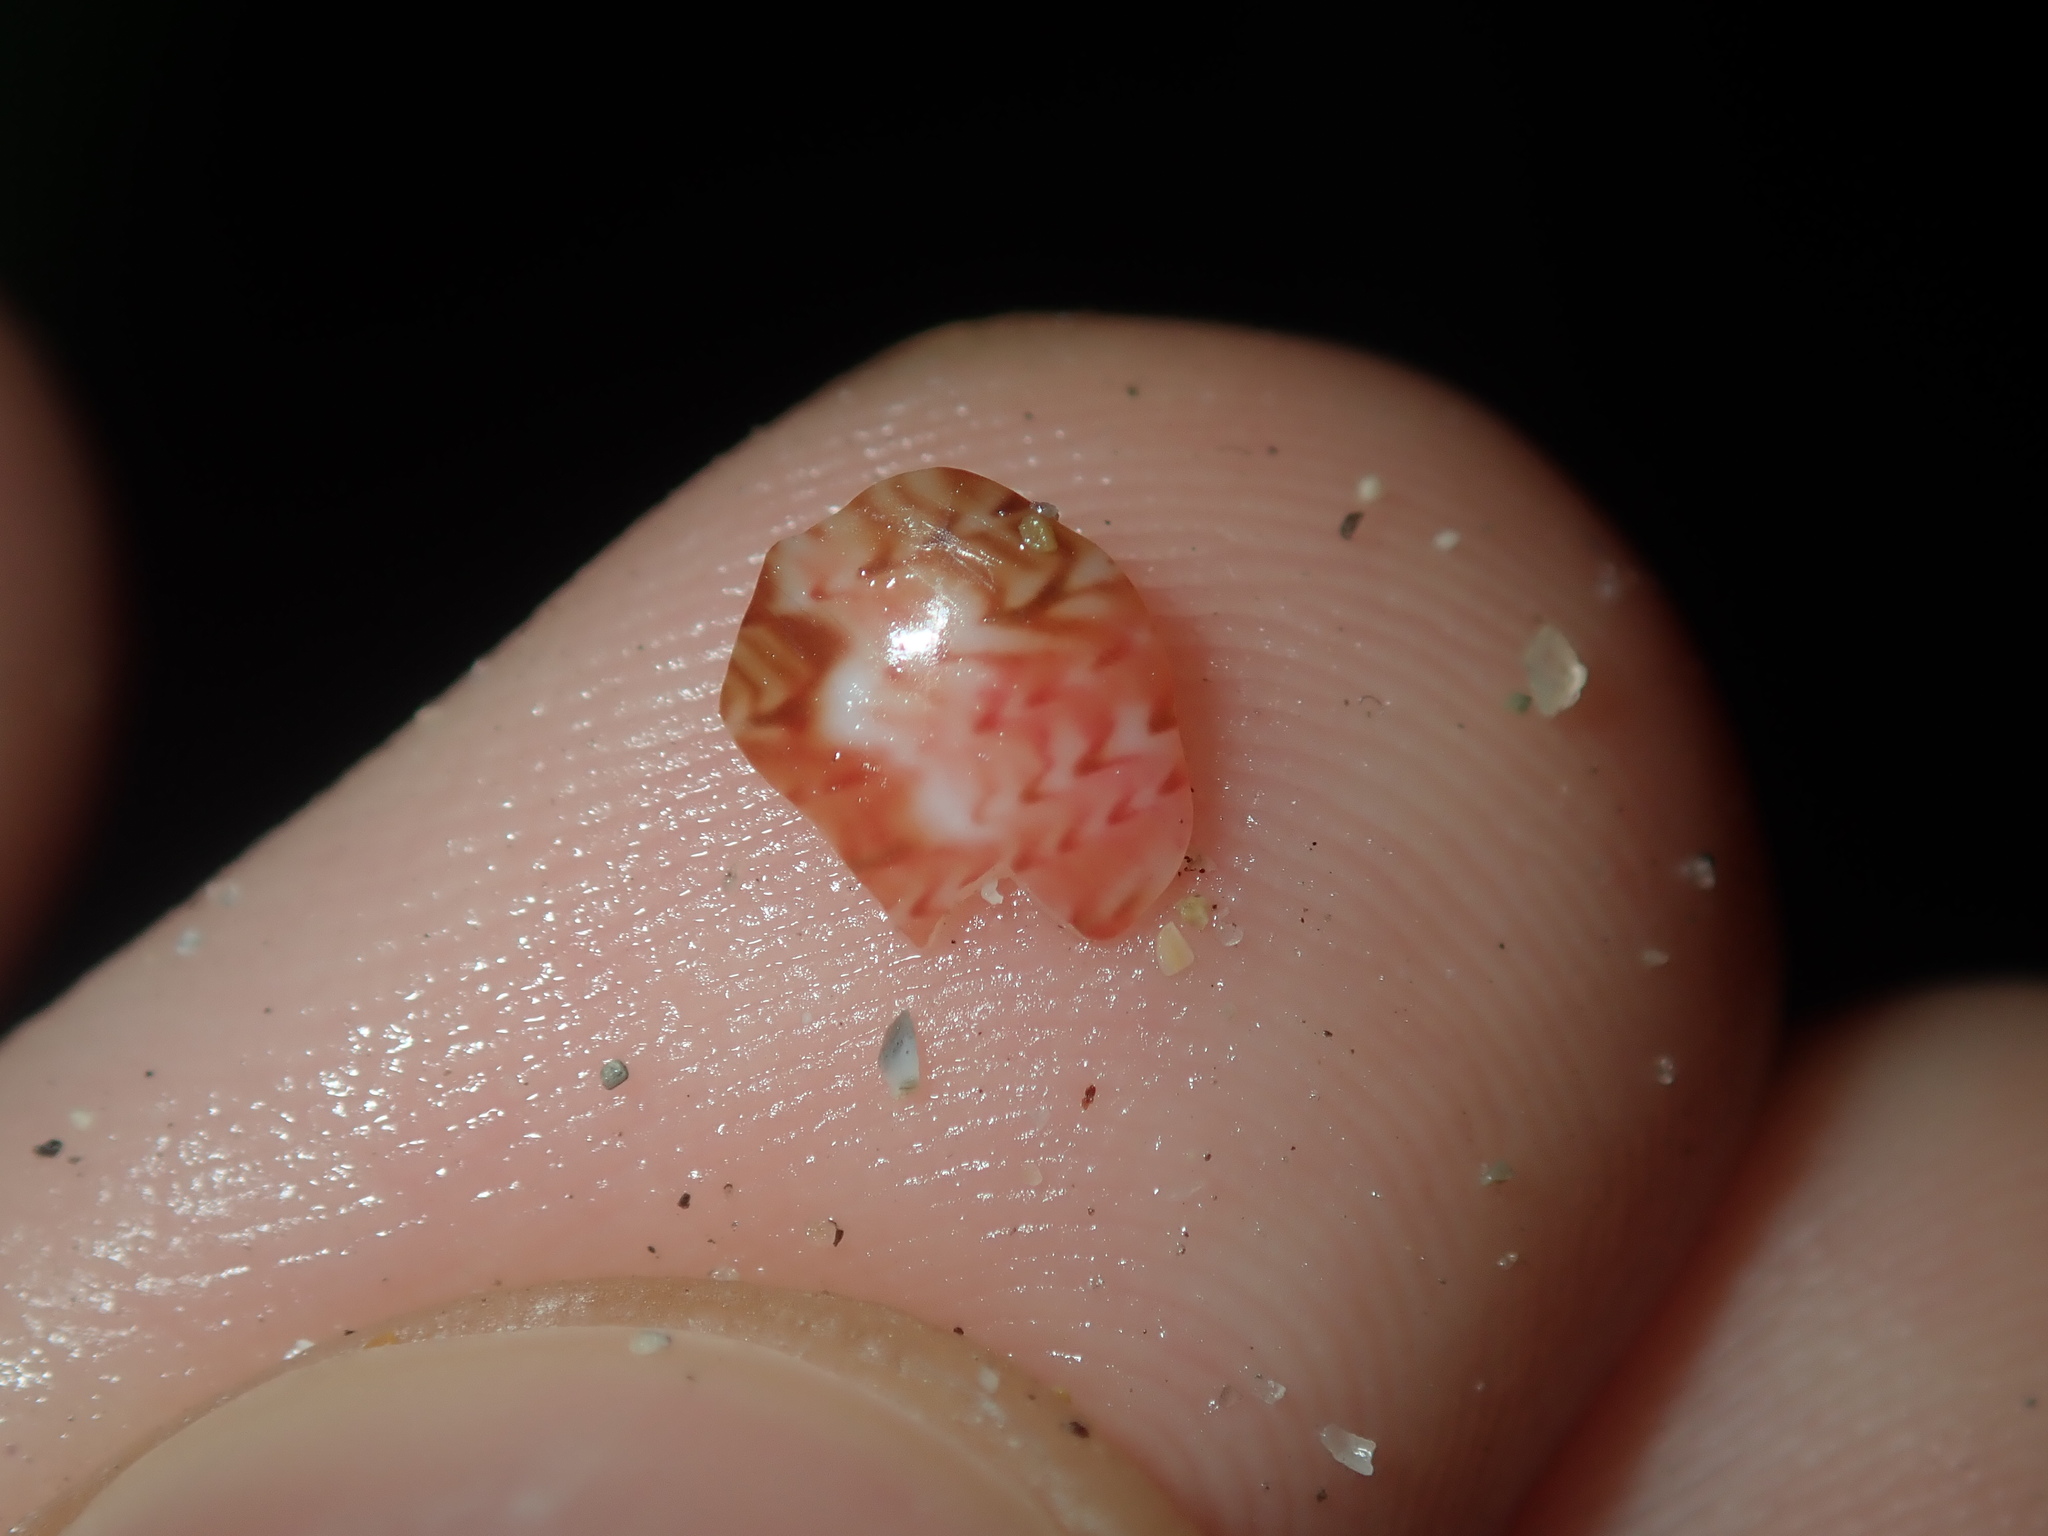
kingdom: Animalia
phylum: Mollusca
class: Gastropoda
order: Trochida
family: Phasianellidae
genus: Phasianella
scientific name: Phasianella ventricosa
